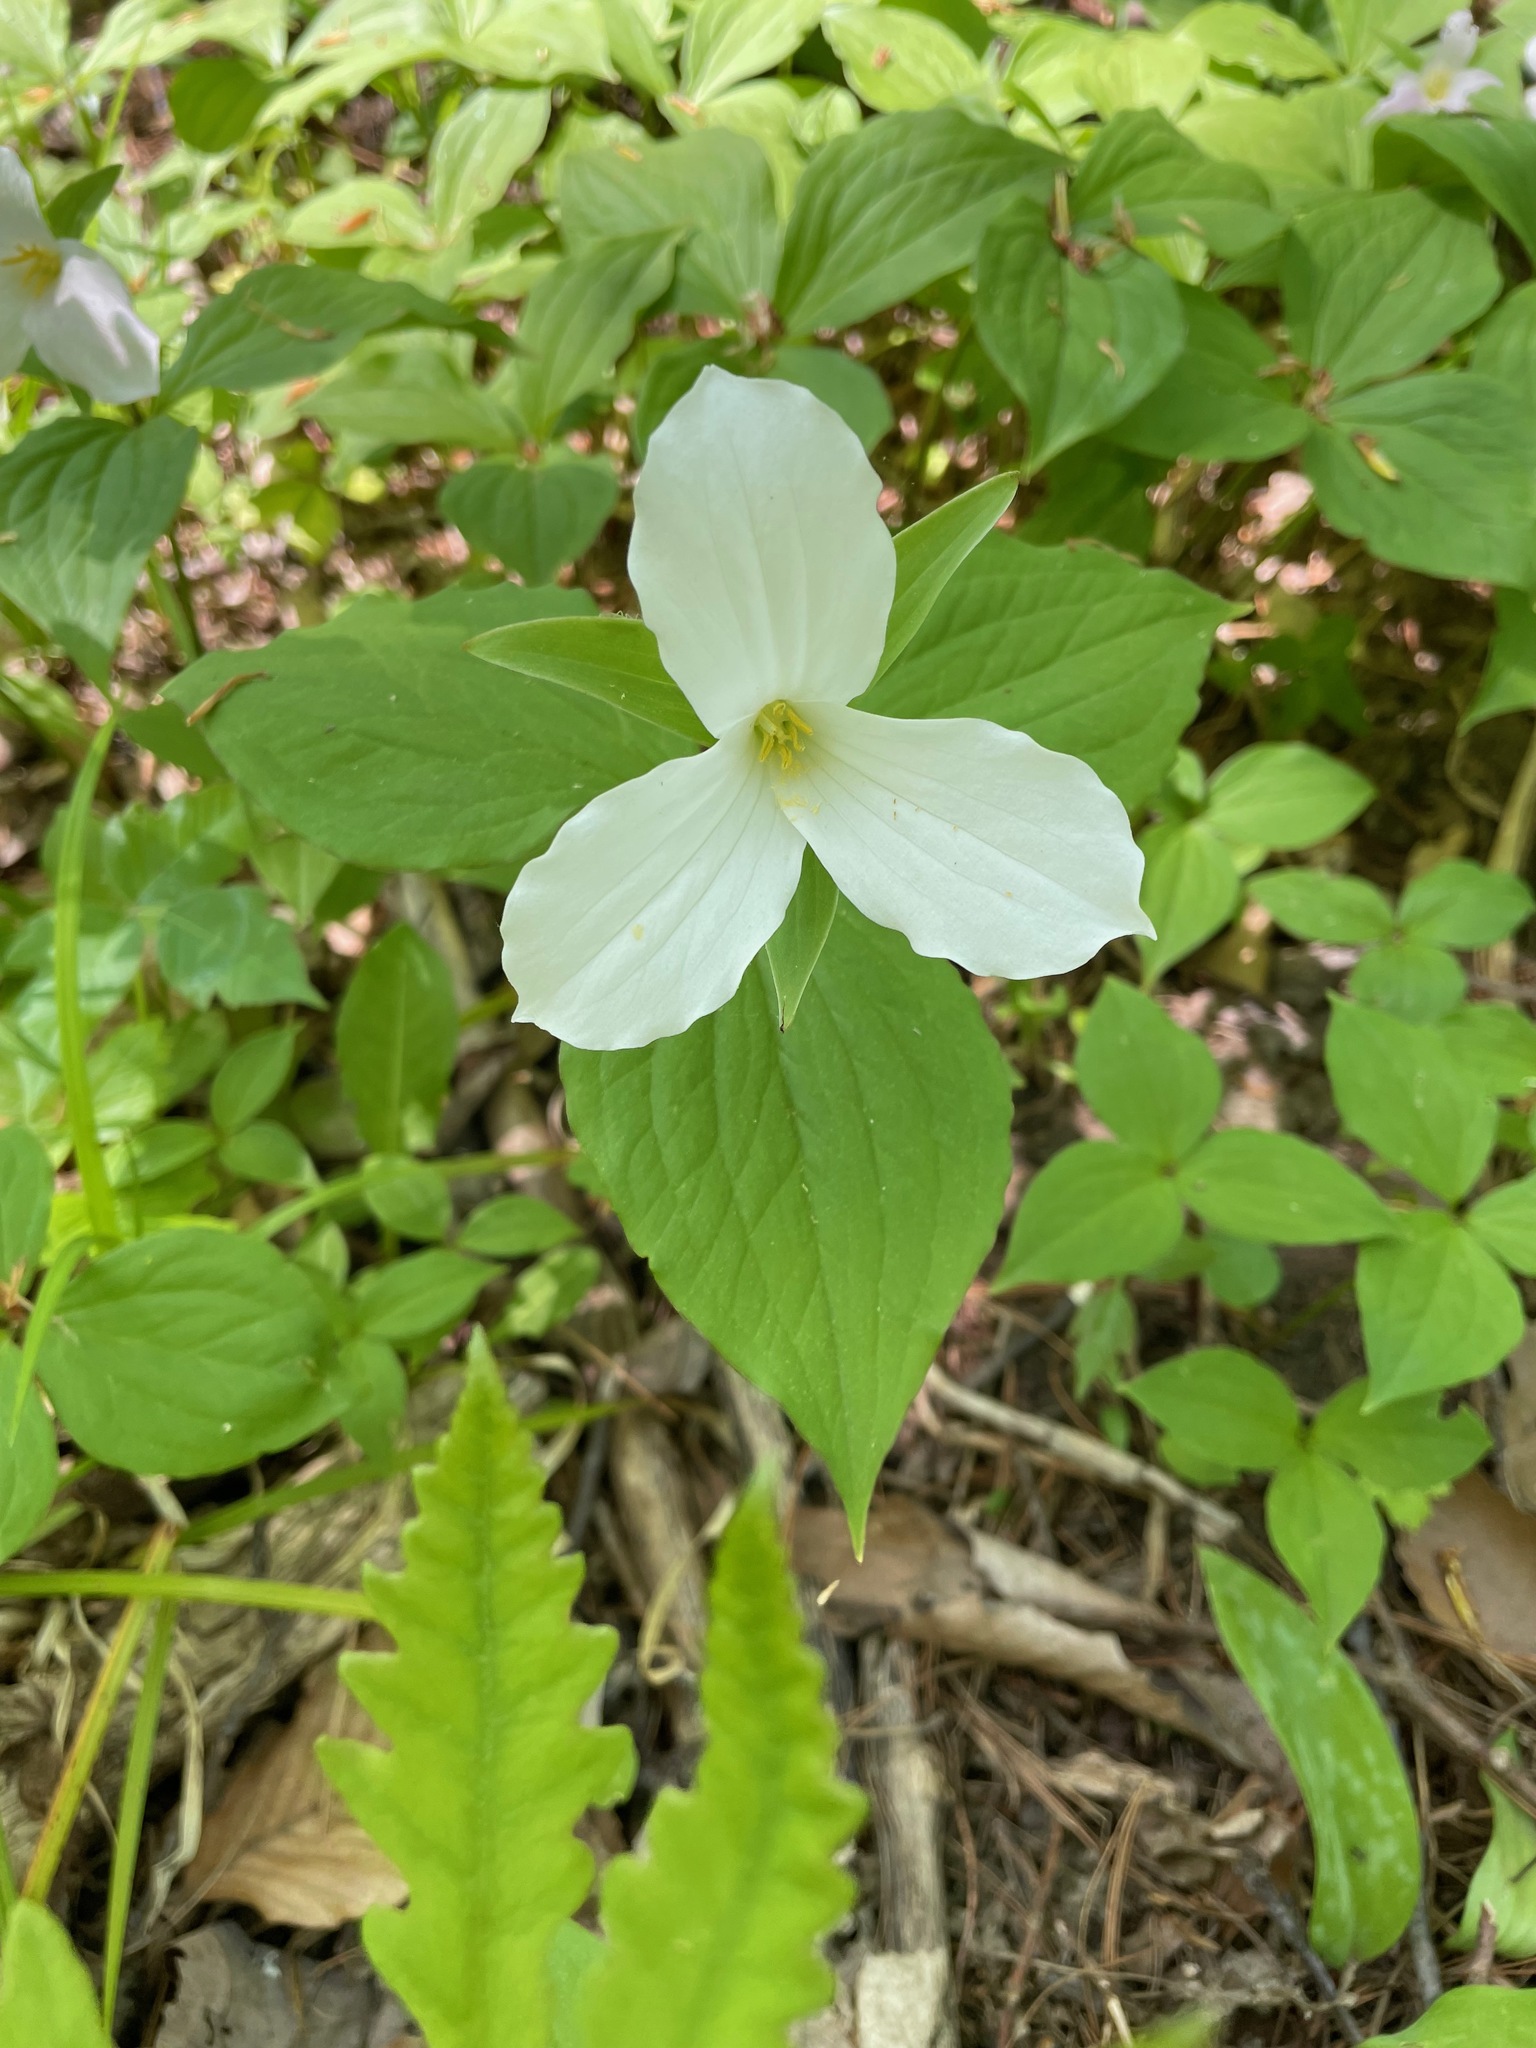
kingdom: Plantae
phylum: Tracheophyta
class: Liliopsida
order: Liliales
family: Melanthiaceae
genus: Trillium
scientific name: Trillium grandiflorum
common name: Great white trillium
